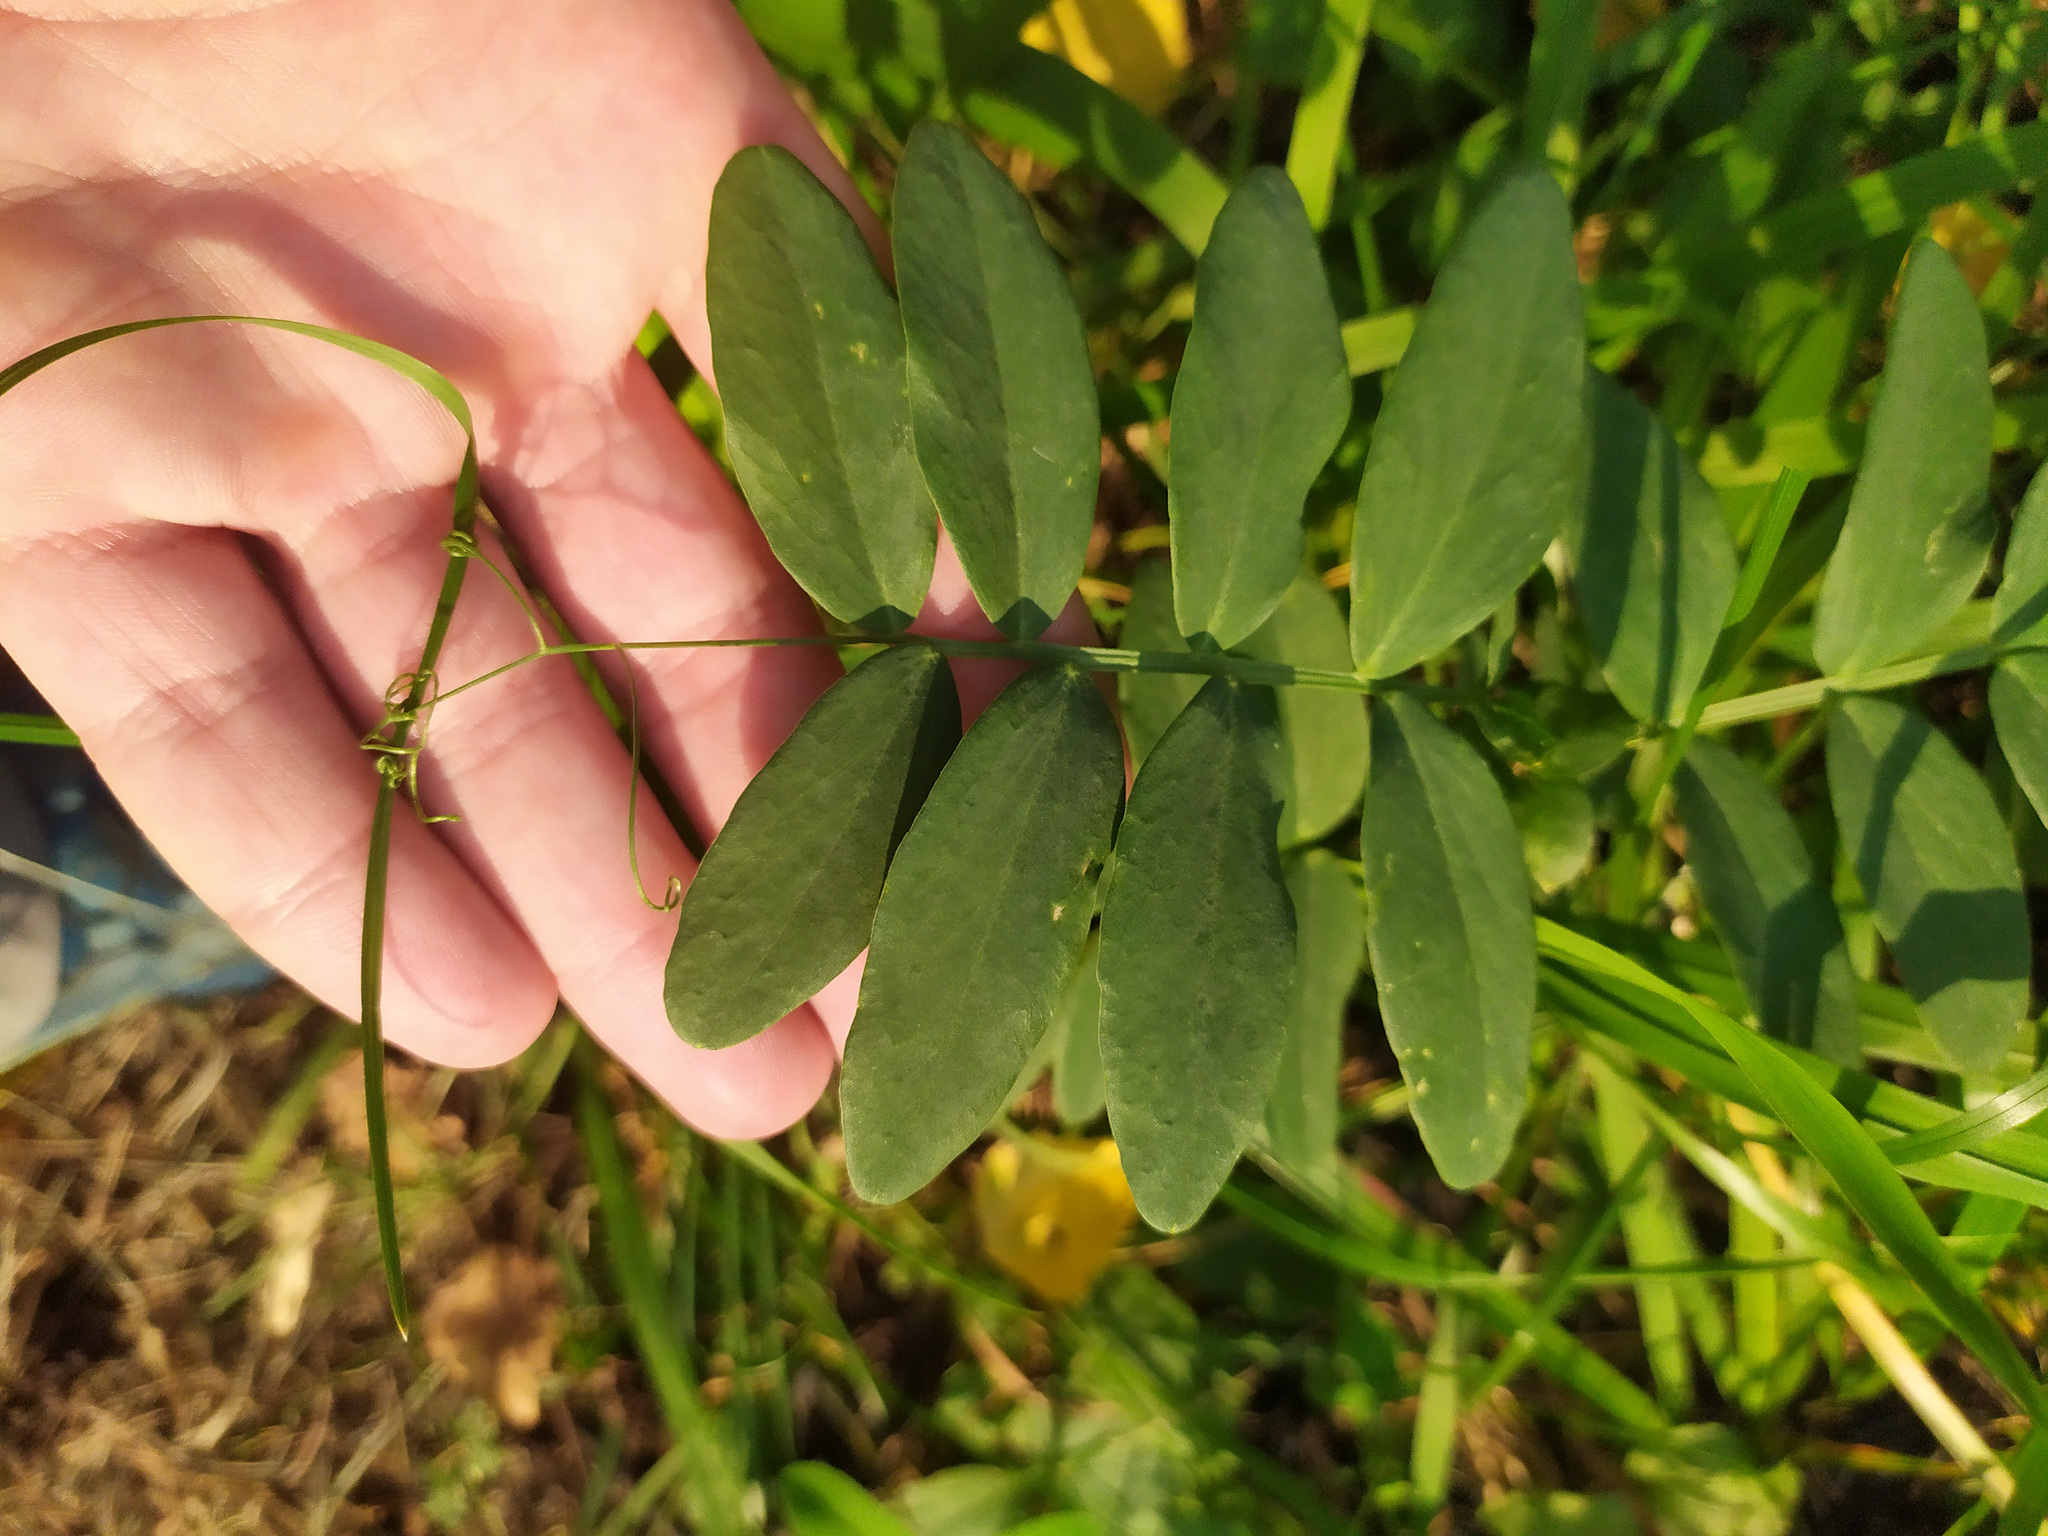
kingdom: Plantae
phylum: Tracheophyta
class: Magnoliopsida
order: Fabales
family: Fabaceae
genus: Lathyrus
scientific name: Lathyrus pisiformis
